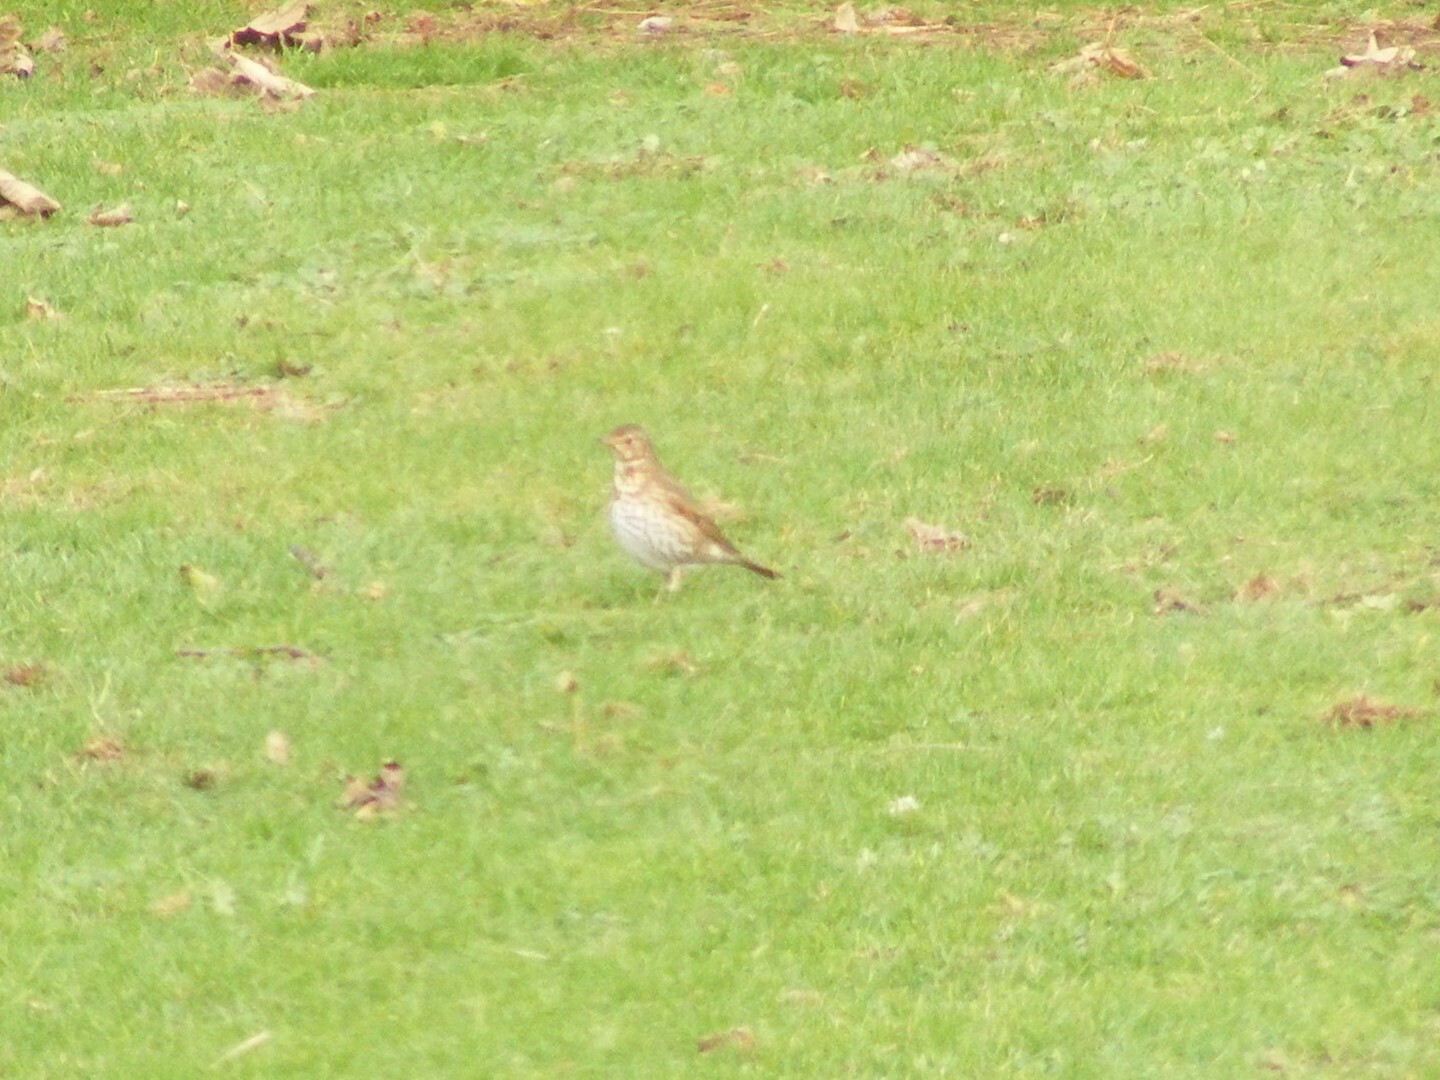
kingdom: Animalia
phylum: Chordata
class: Aves
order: Passeriformes
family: Turdidae
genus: Turdus
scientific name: Turdus philomelos
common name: Song thrush
